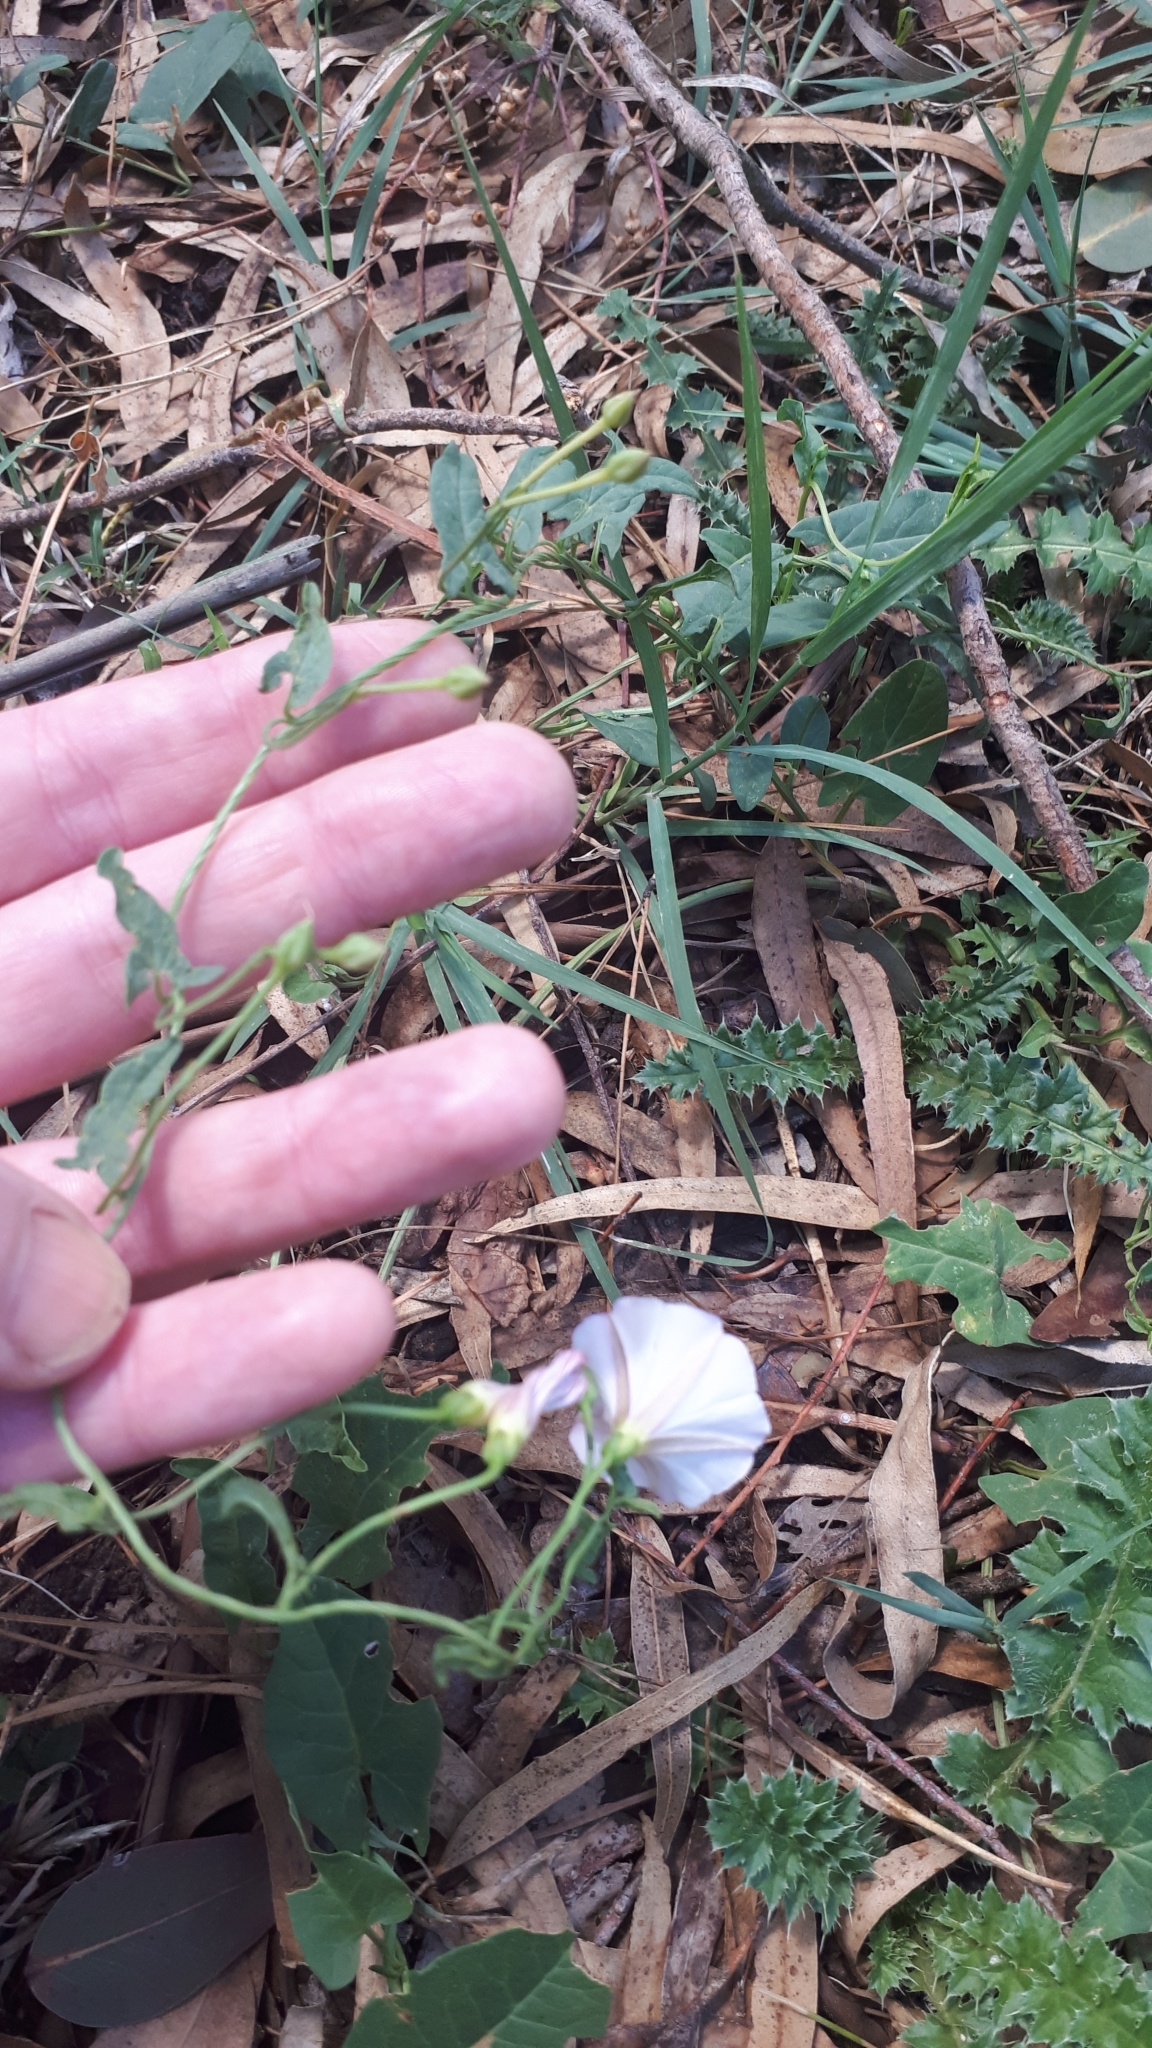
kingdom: Plantae
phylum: Tracheophyta
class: Magnoliopsida
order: Solanales
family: Convolvulaceae
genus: Convolvulus
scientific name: Convolvulus arvensis
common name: Field bindweed
